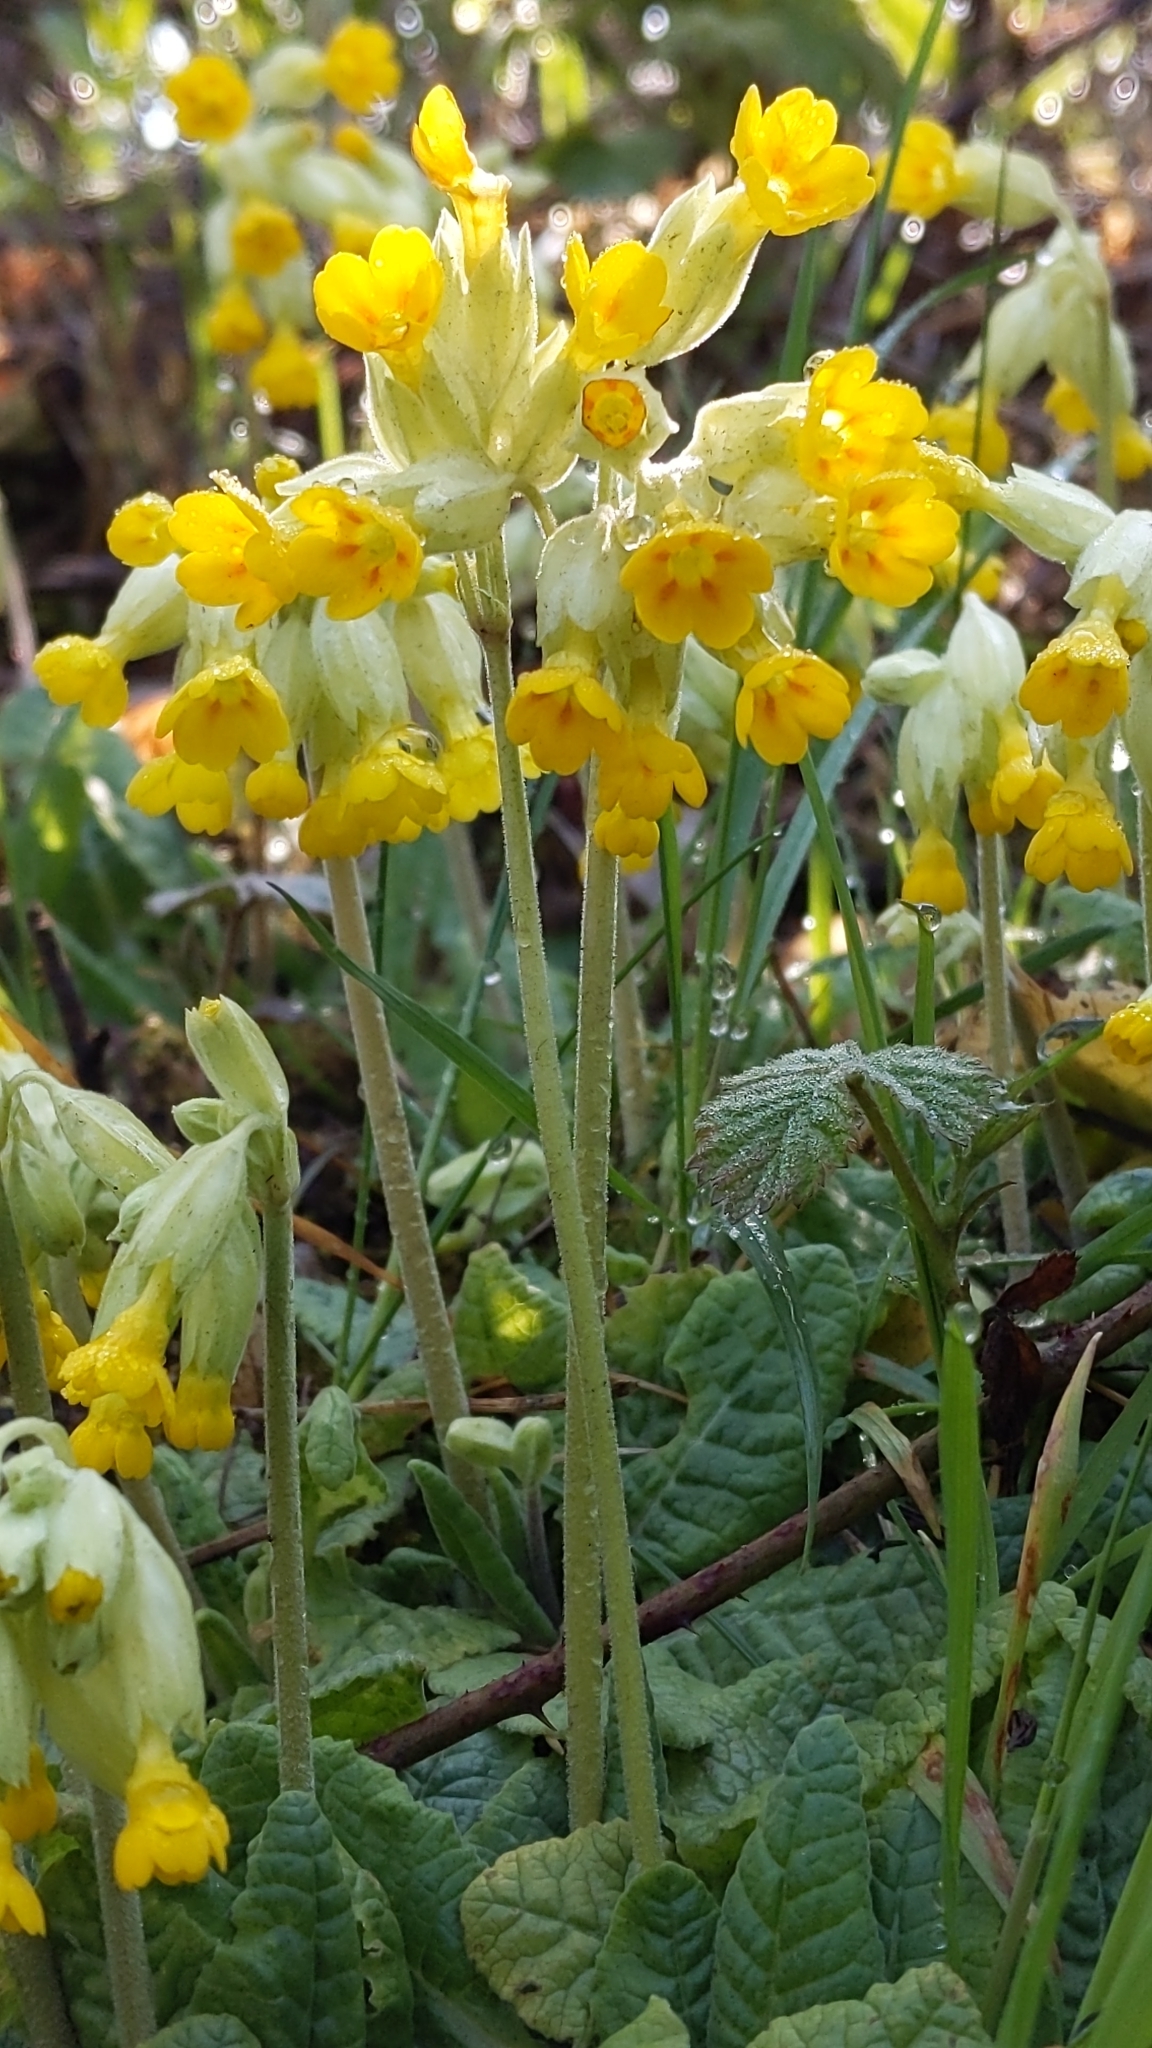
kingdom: Plantae
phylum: Tracheophyta
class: Magnoliopsida
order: Ericales
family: Primulaceae
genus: Primula
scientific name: Primula veris
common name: Cowslip
